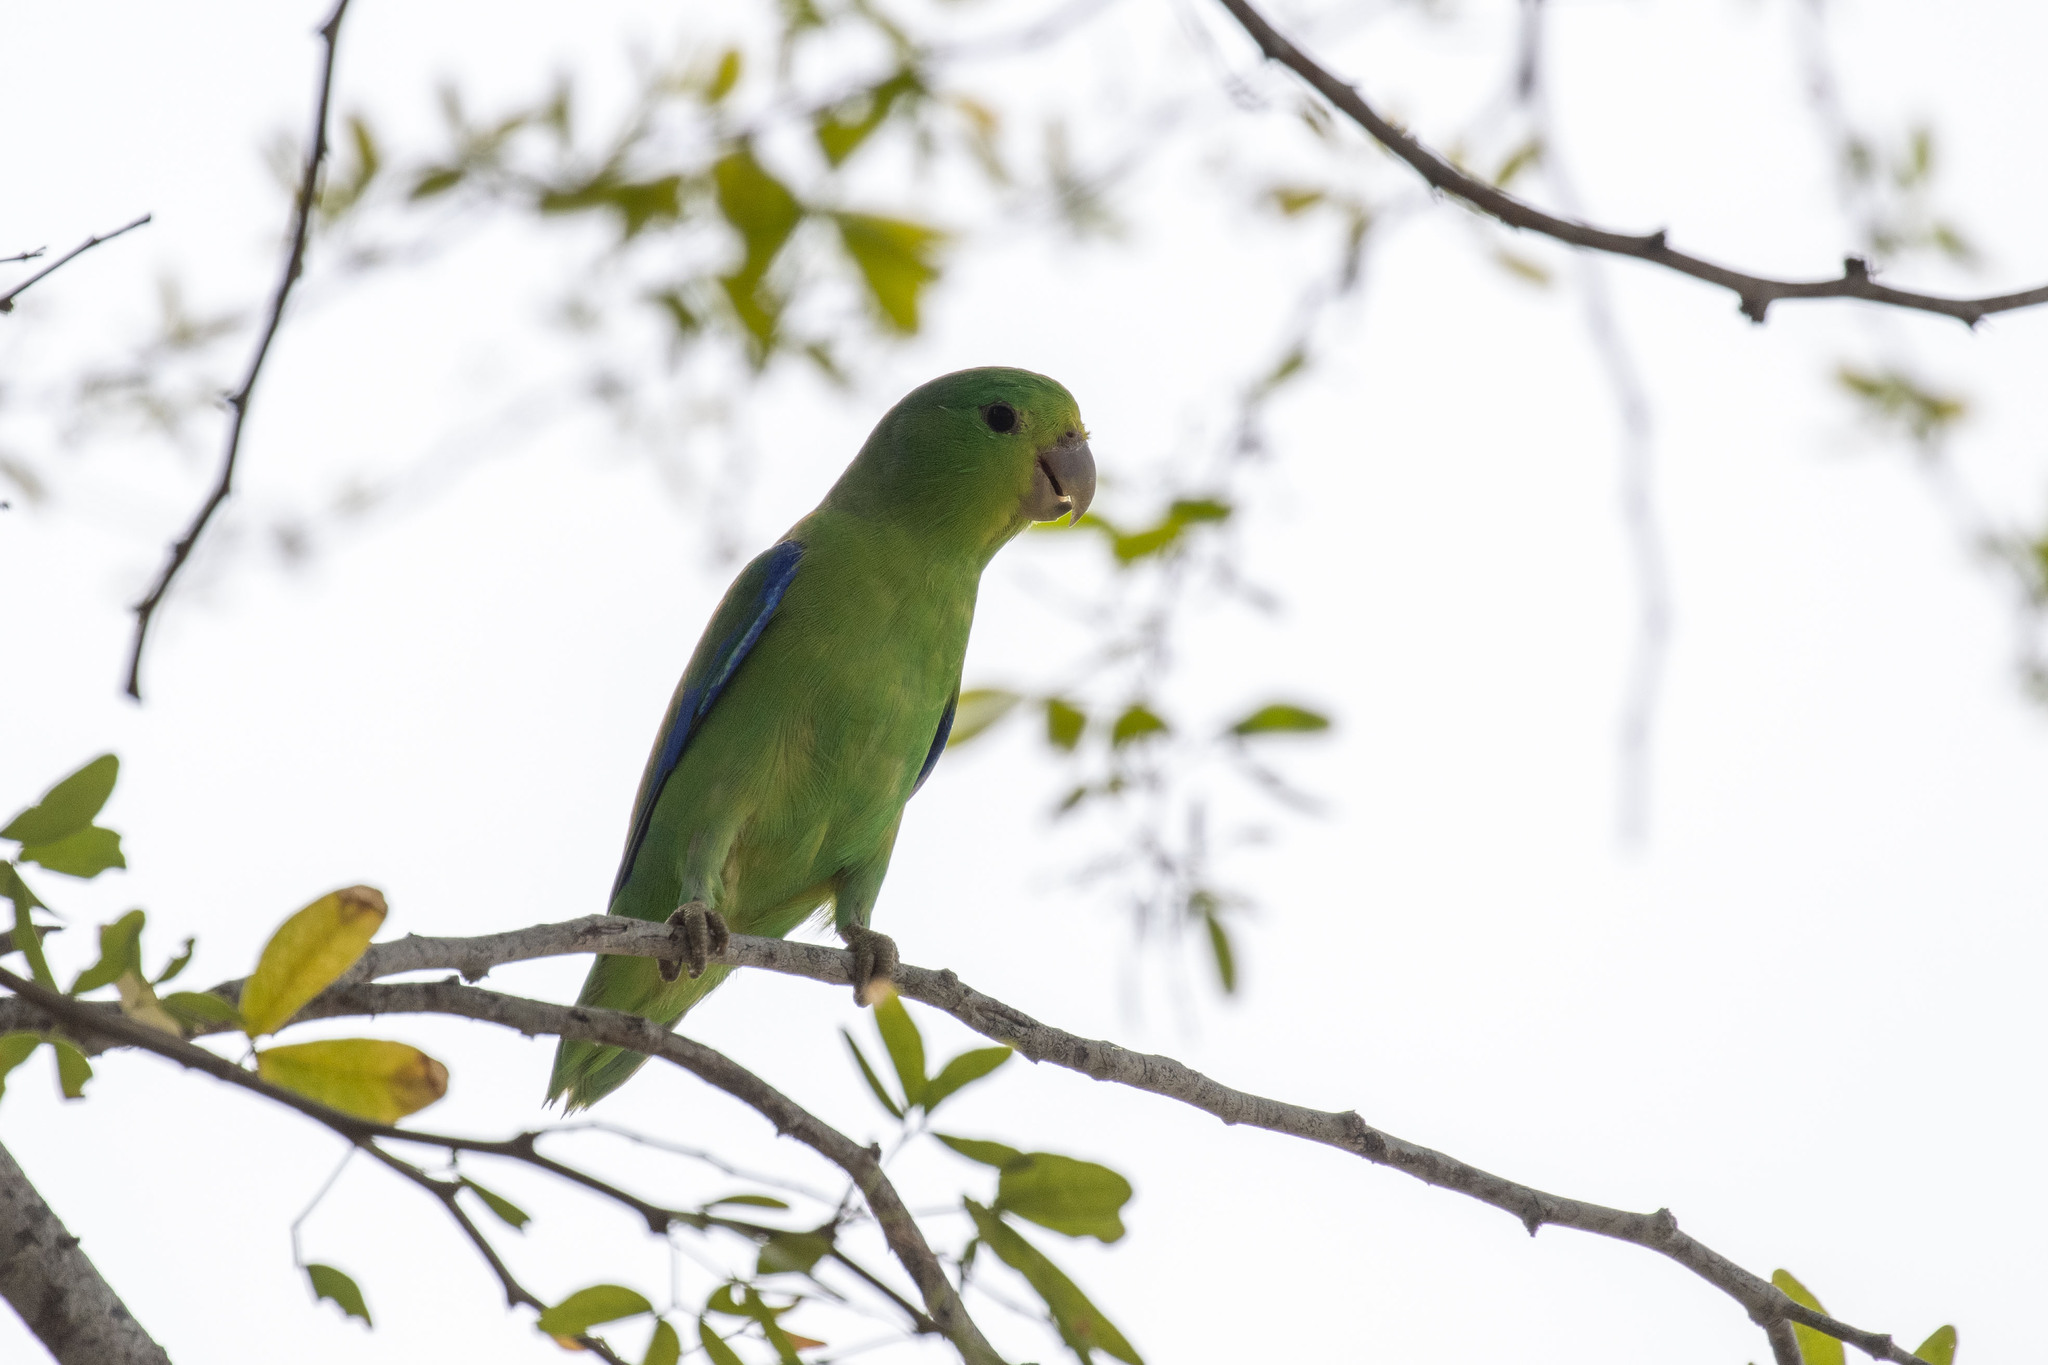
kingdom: Animalia
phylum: Chordata
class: Aves
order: Psittaciformes
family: Psittacidae
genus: Forpus
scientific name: Forpus xanthopterygius
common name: Blue-winged parrotlet
